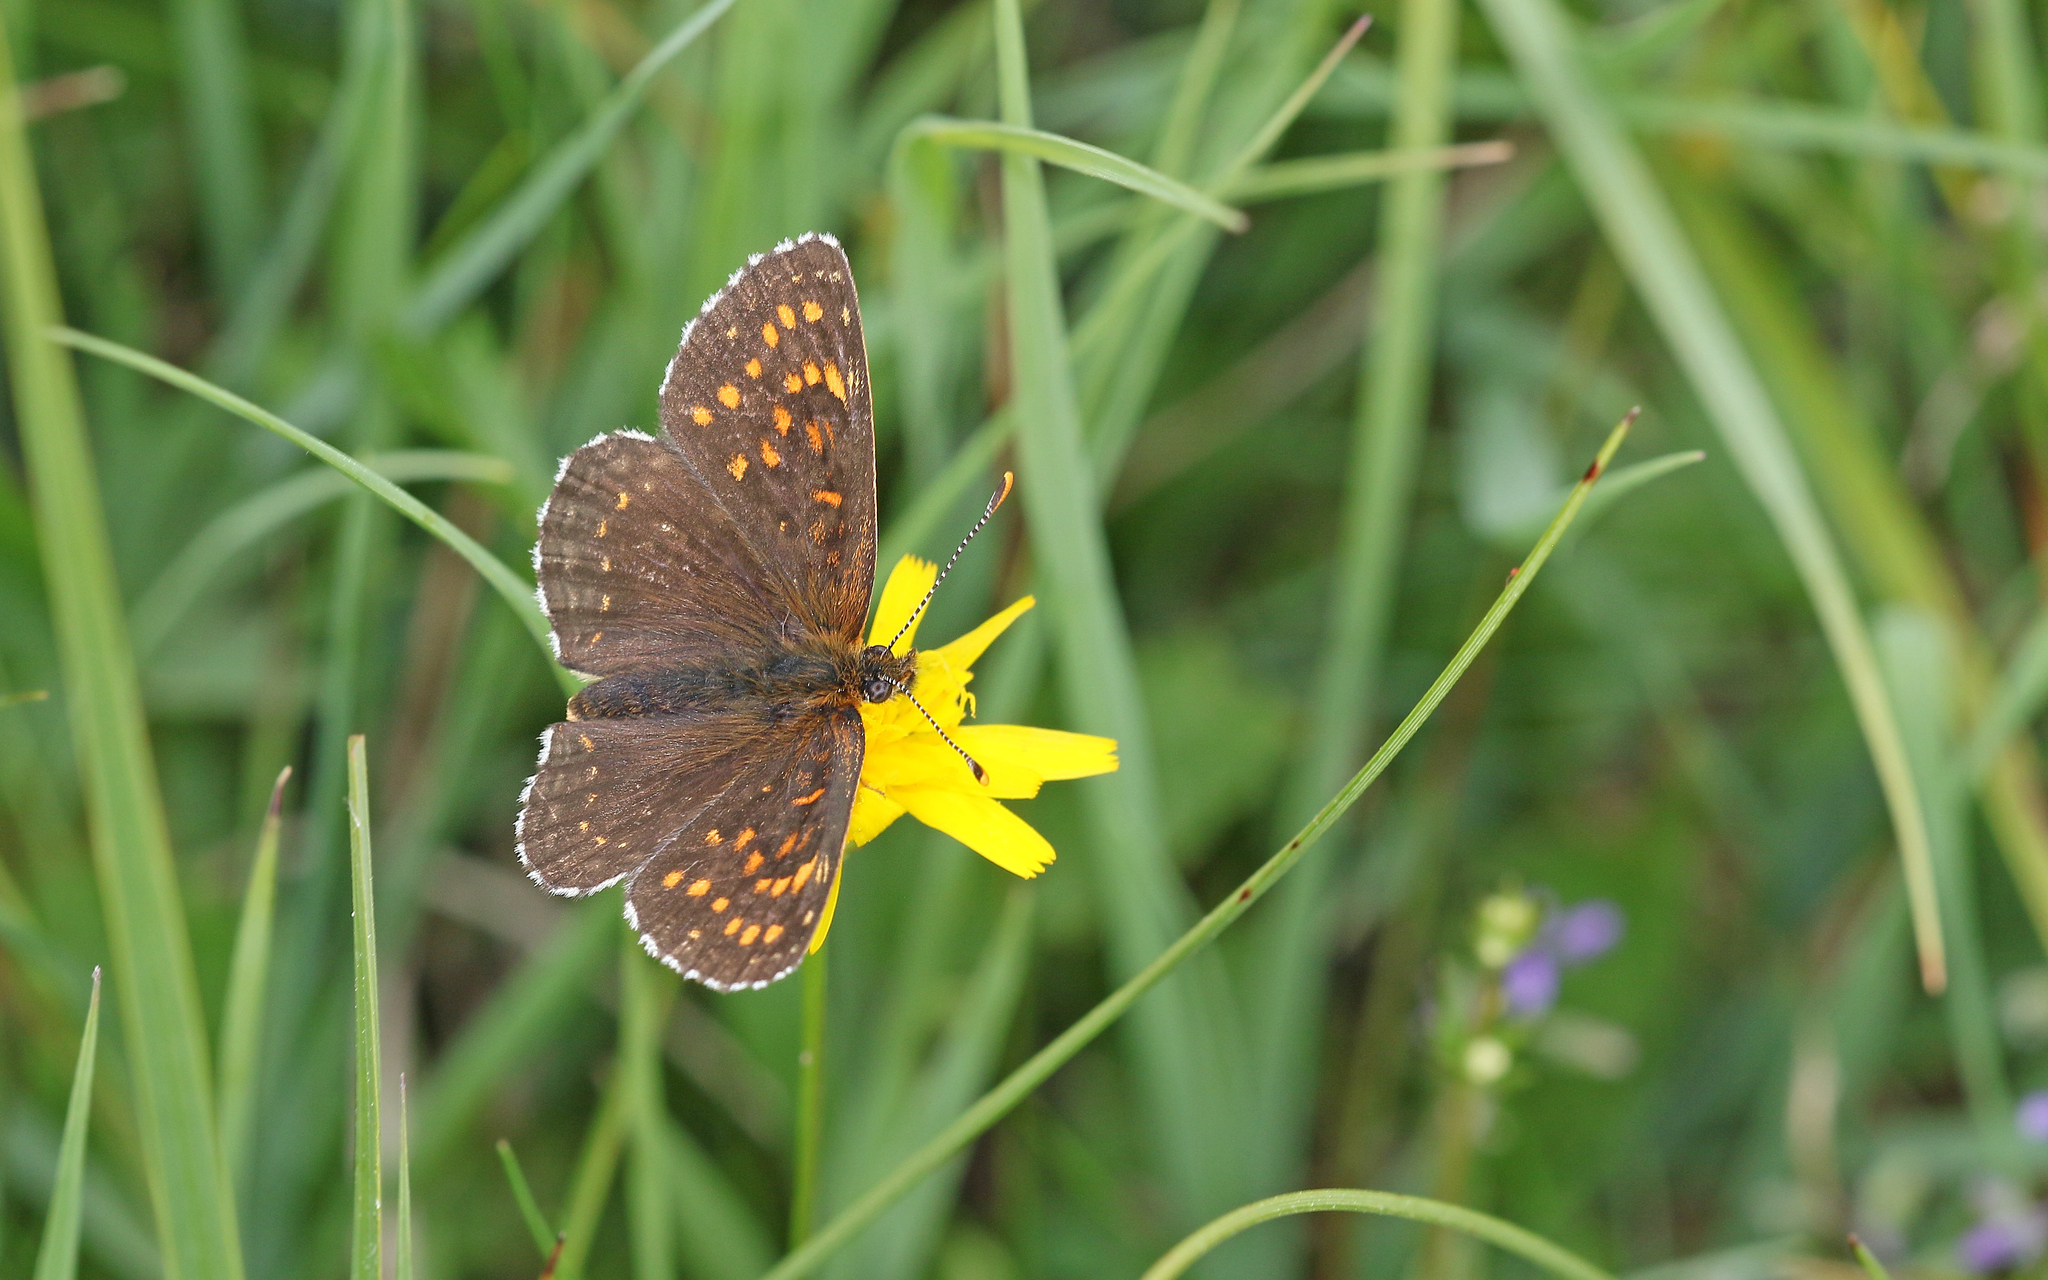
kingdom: Animalia
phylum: Arthropoda
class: Insecta
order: Lepidoptera
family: Nymphalidae
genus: Melitaea
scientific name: Melitaea diamina
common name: False heath fritillary
